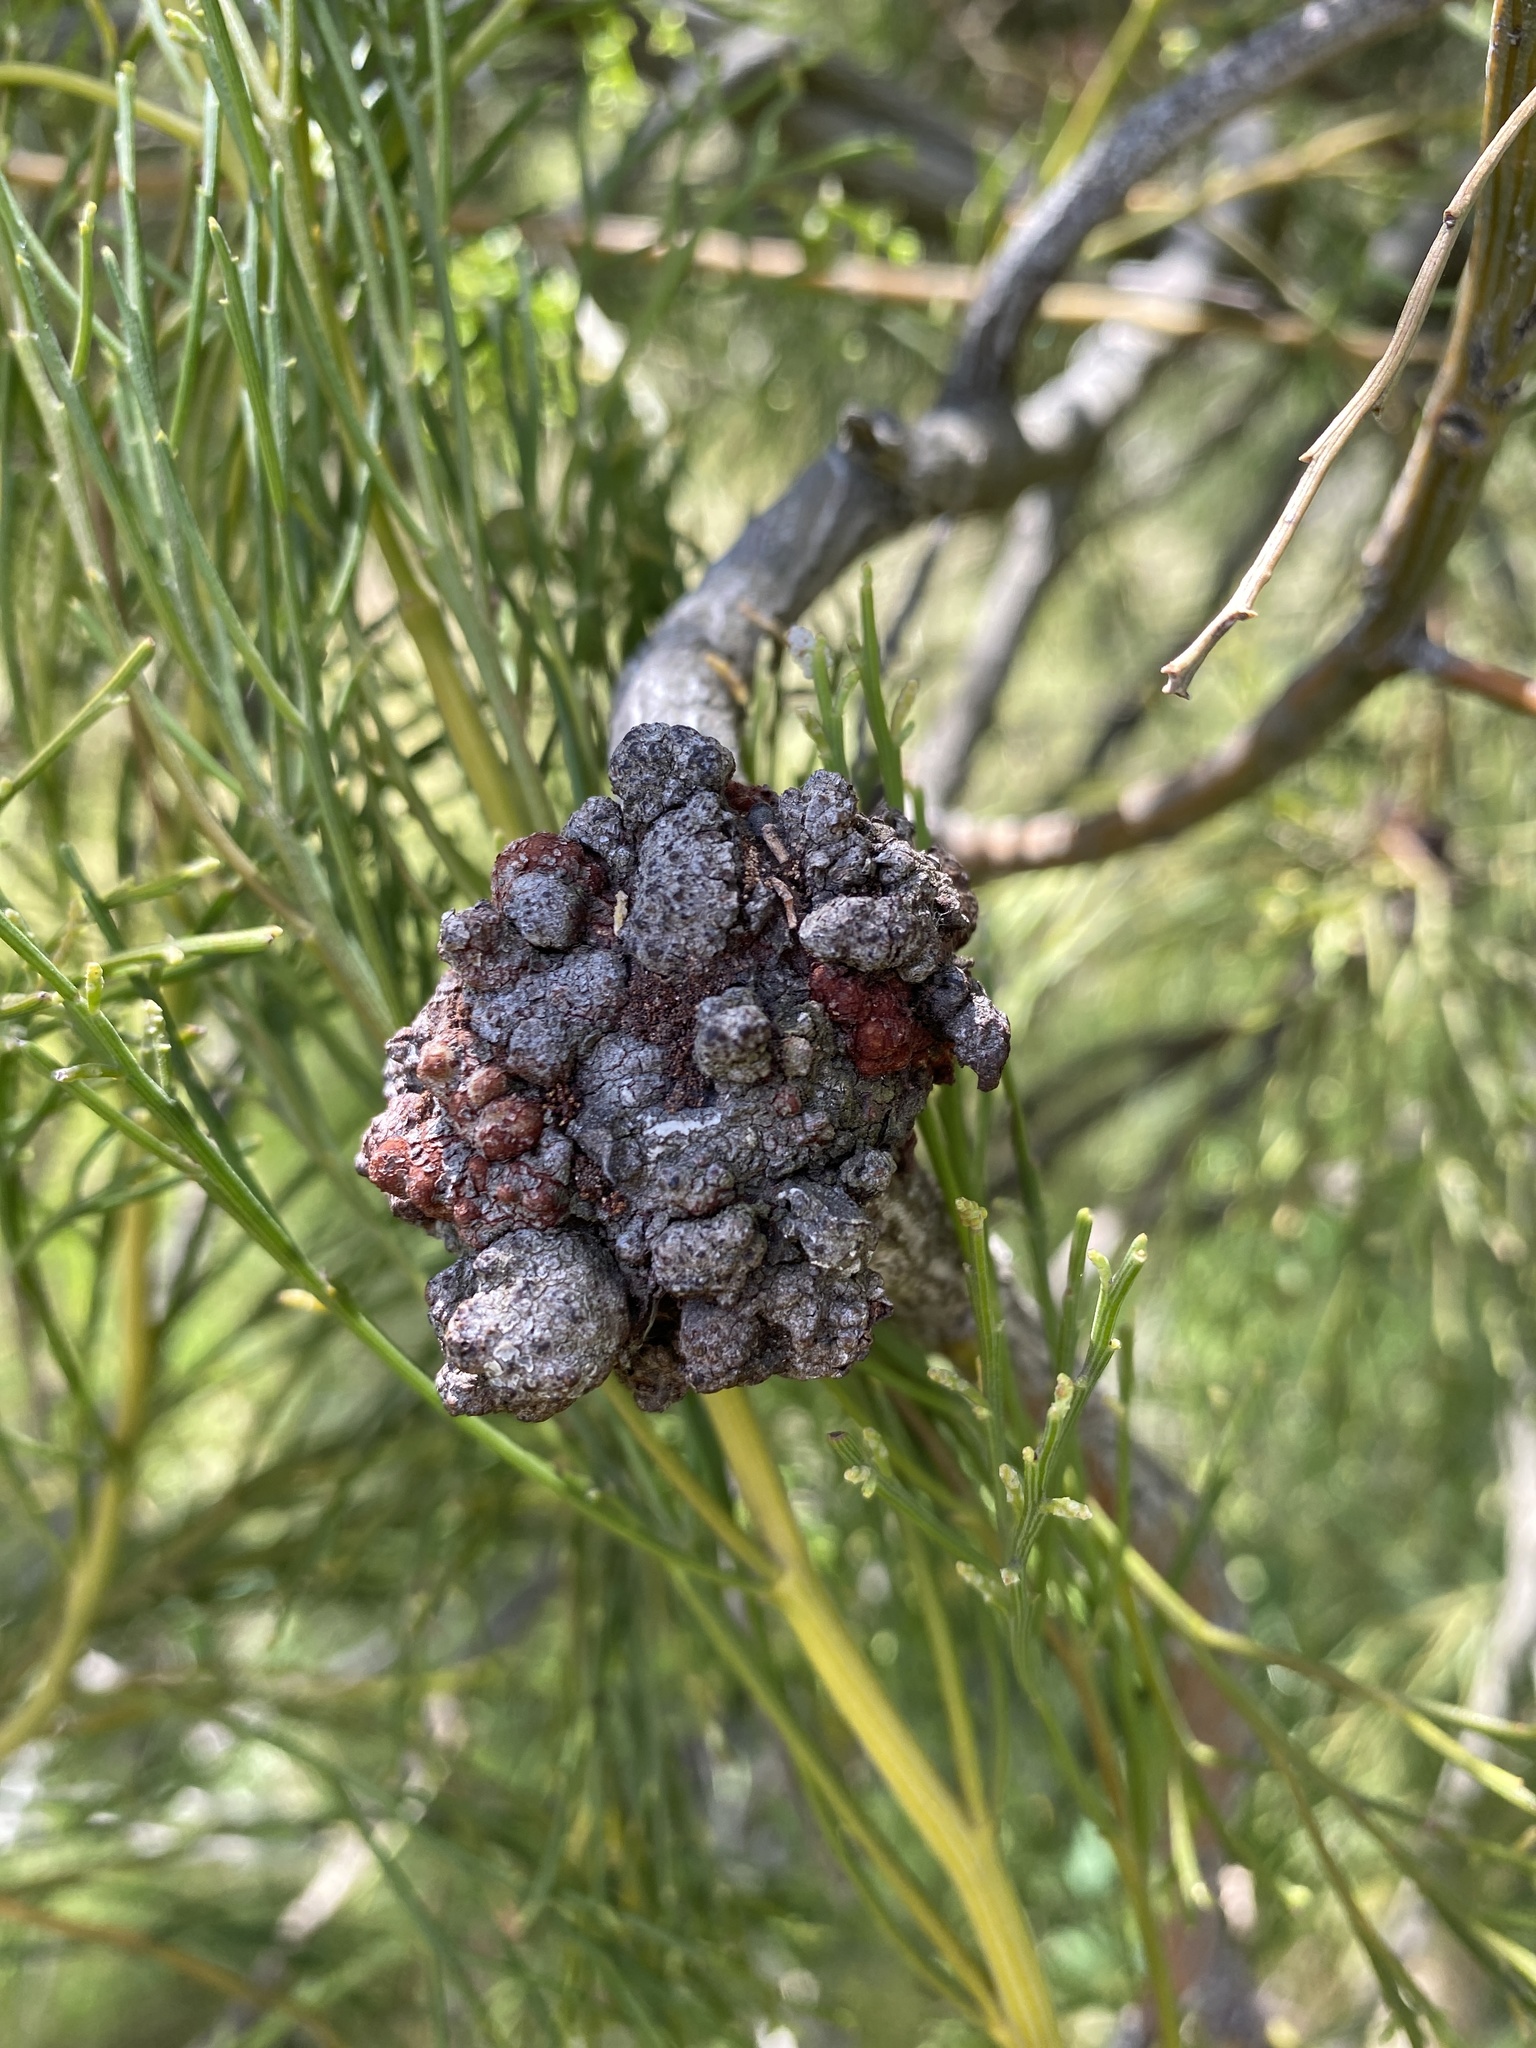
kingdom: Plantae
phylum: Tracheophyta
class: Magnoliopsida
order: Santalales
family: Santalaceae
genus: Exocarpos
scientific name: Exocarpos cupressiformis
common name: Cherry ballart
